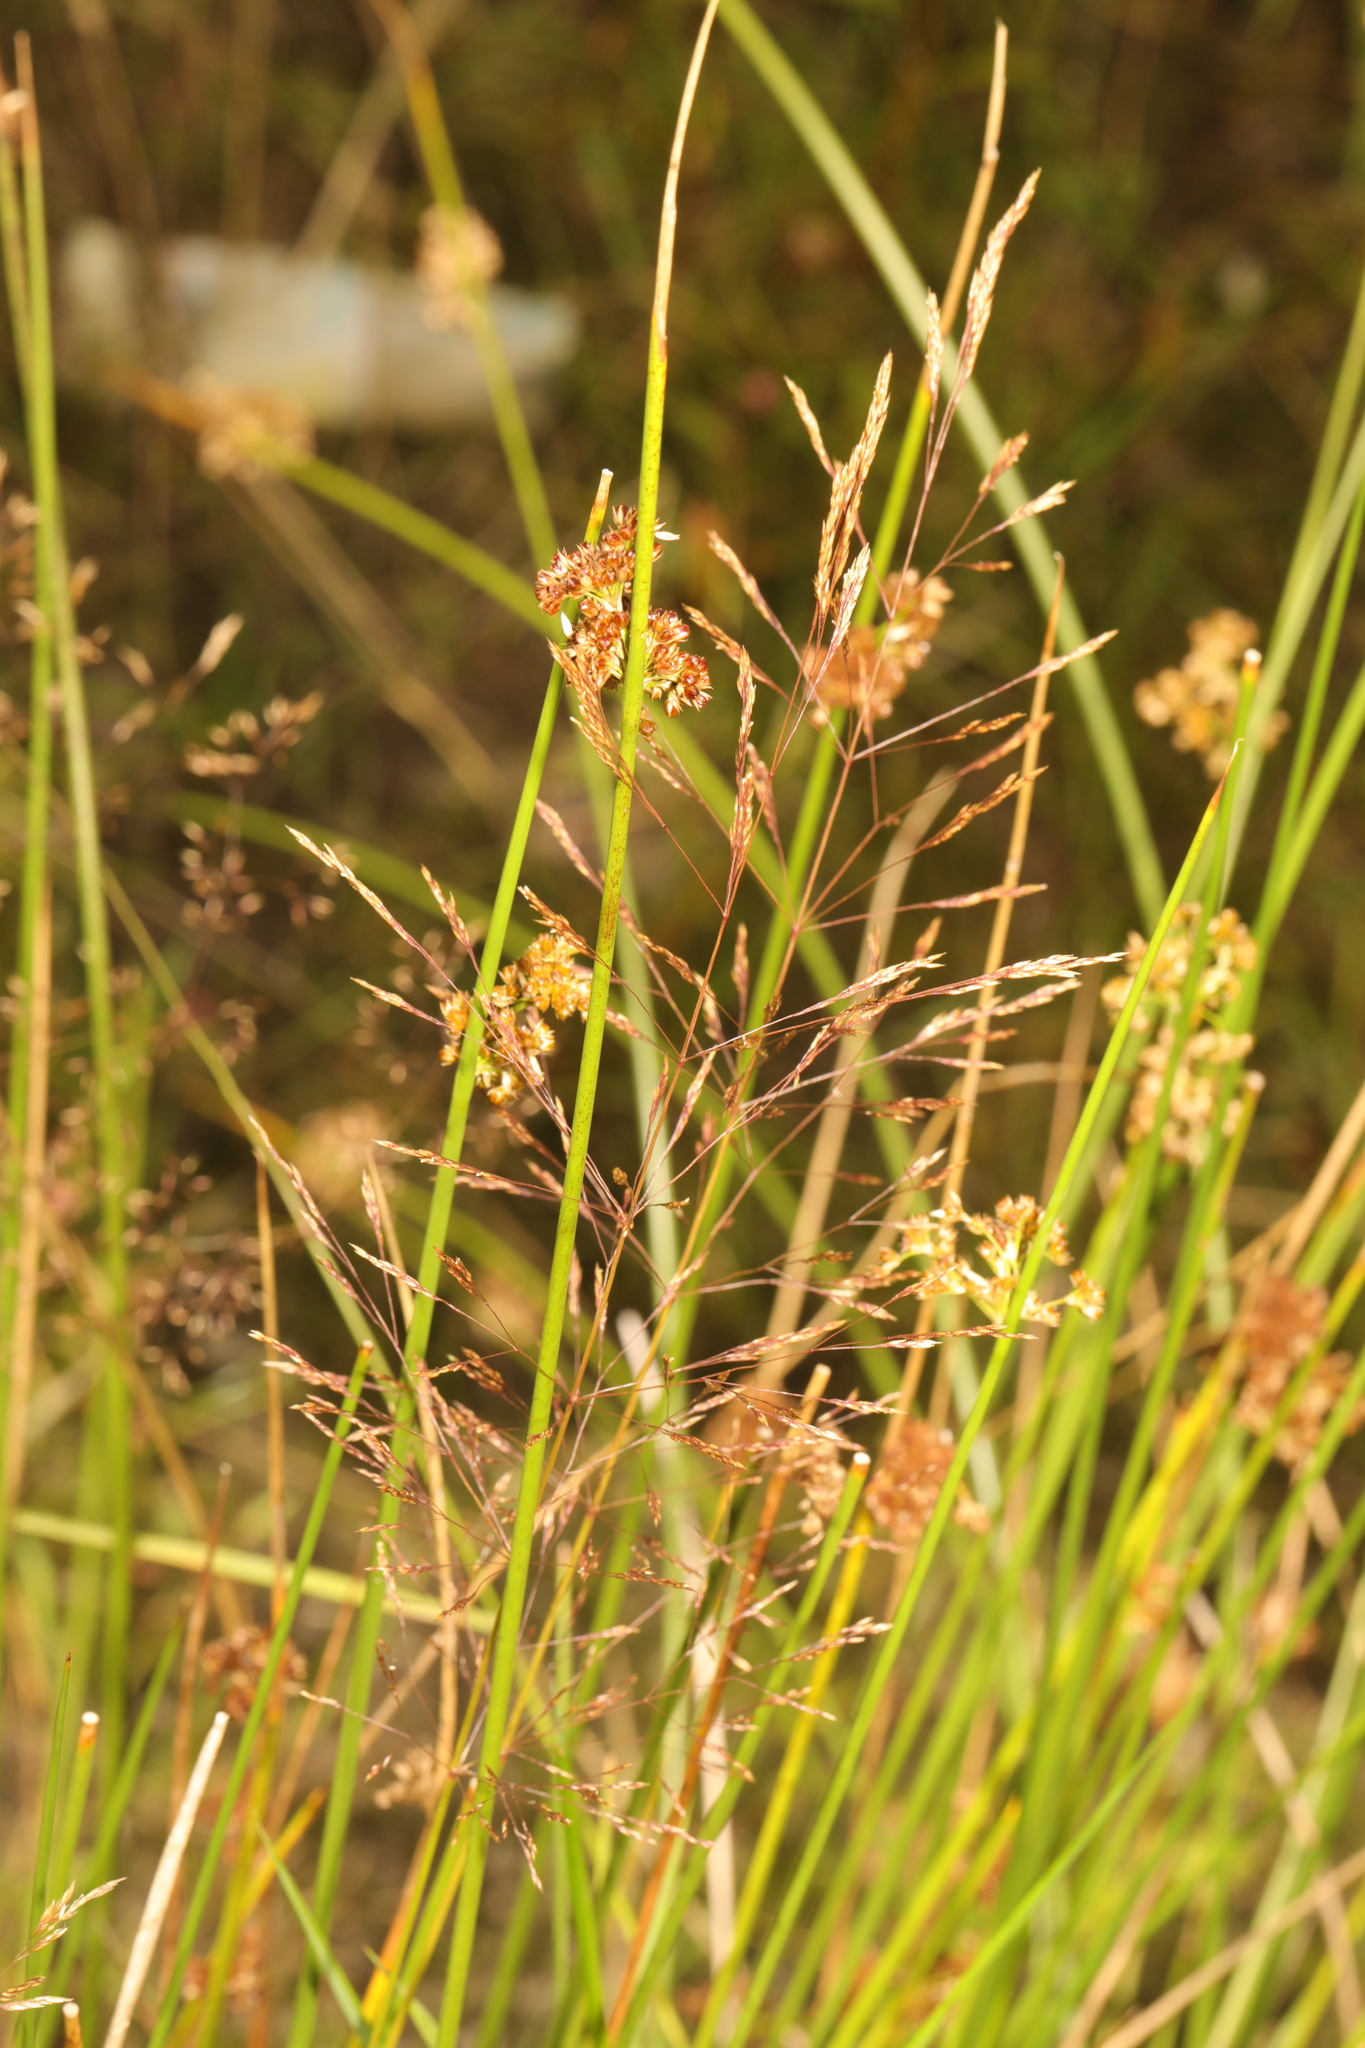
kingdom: Plantae
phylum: Tracheophyta
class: Liliopsida
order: Poales
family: Juncaceae
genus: Juncus
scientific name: Juncus effusus
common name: Soft rush
